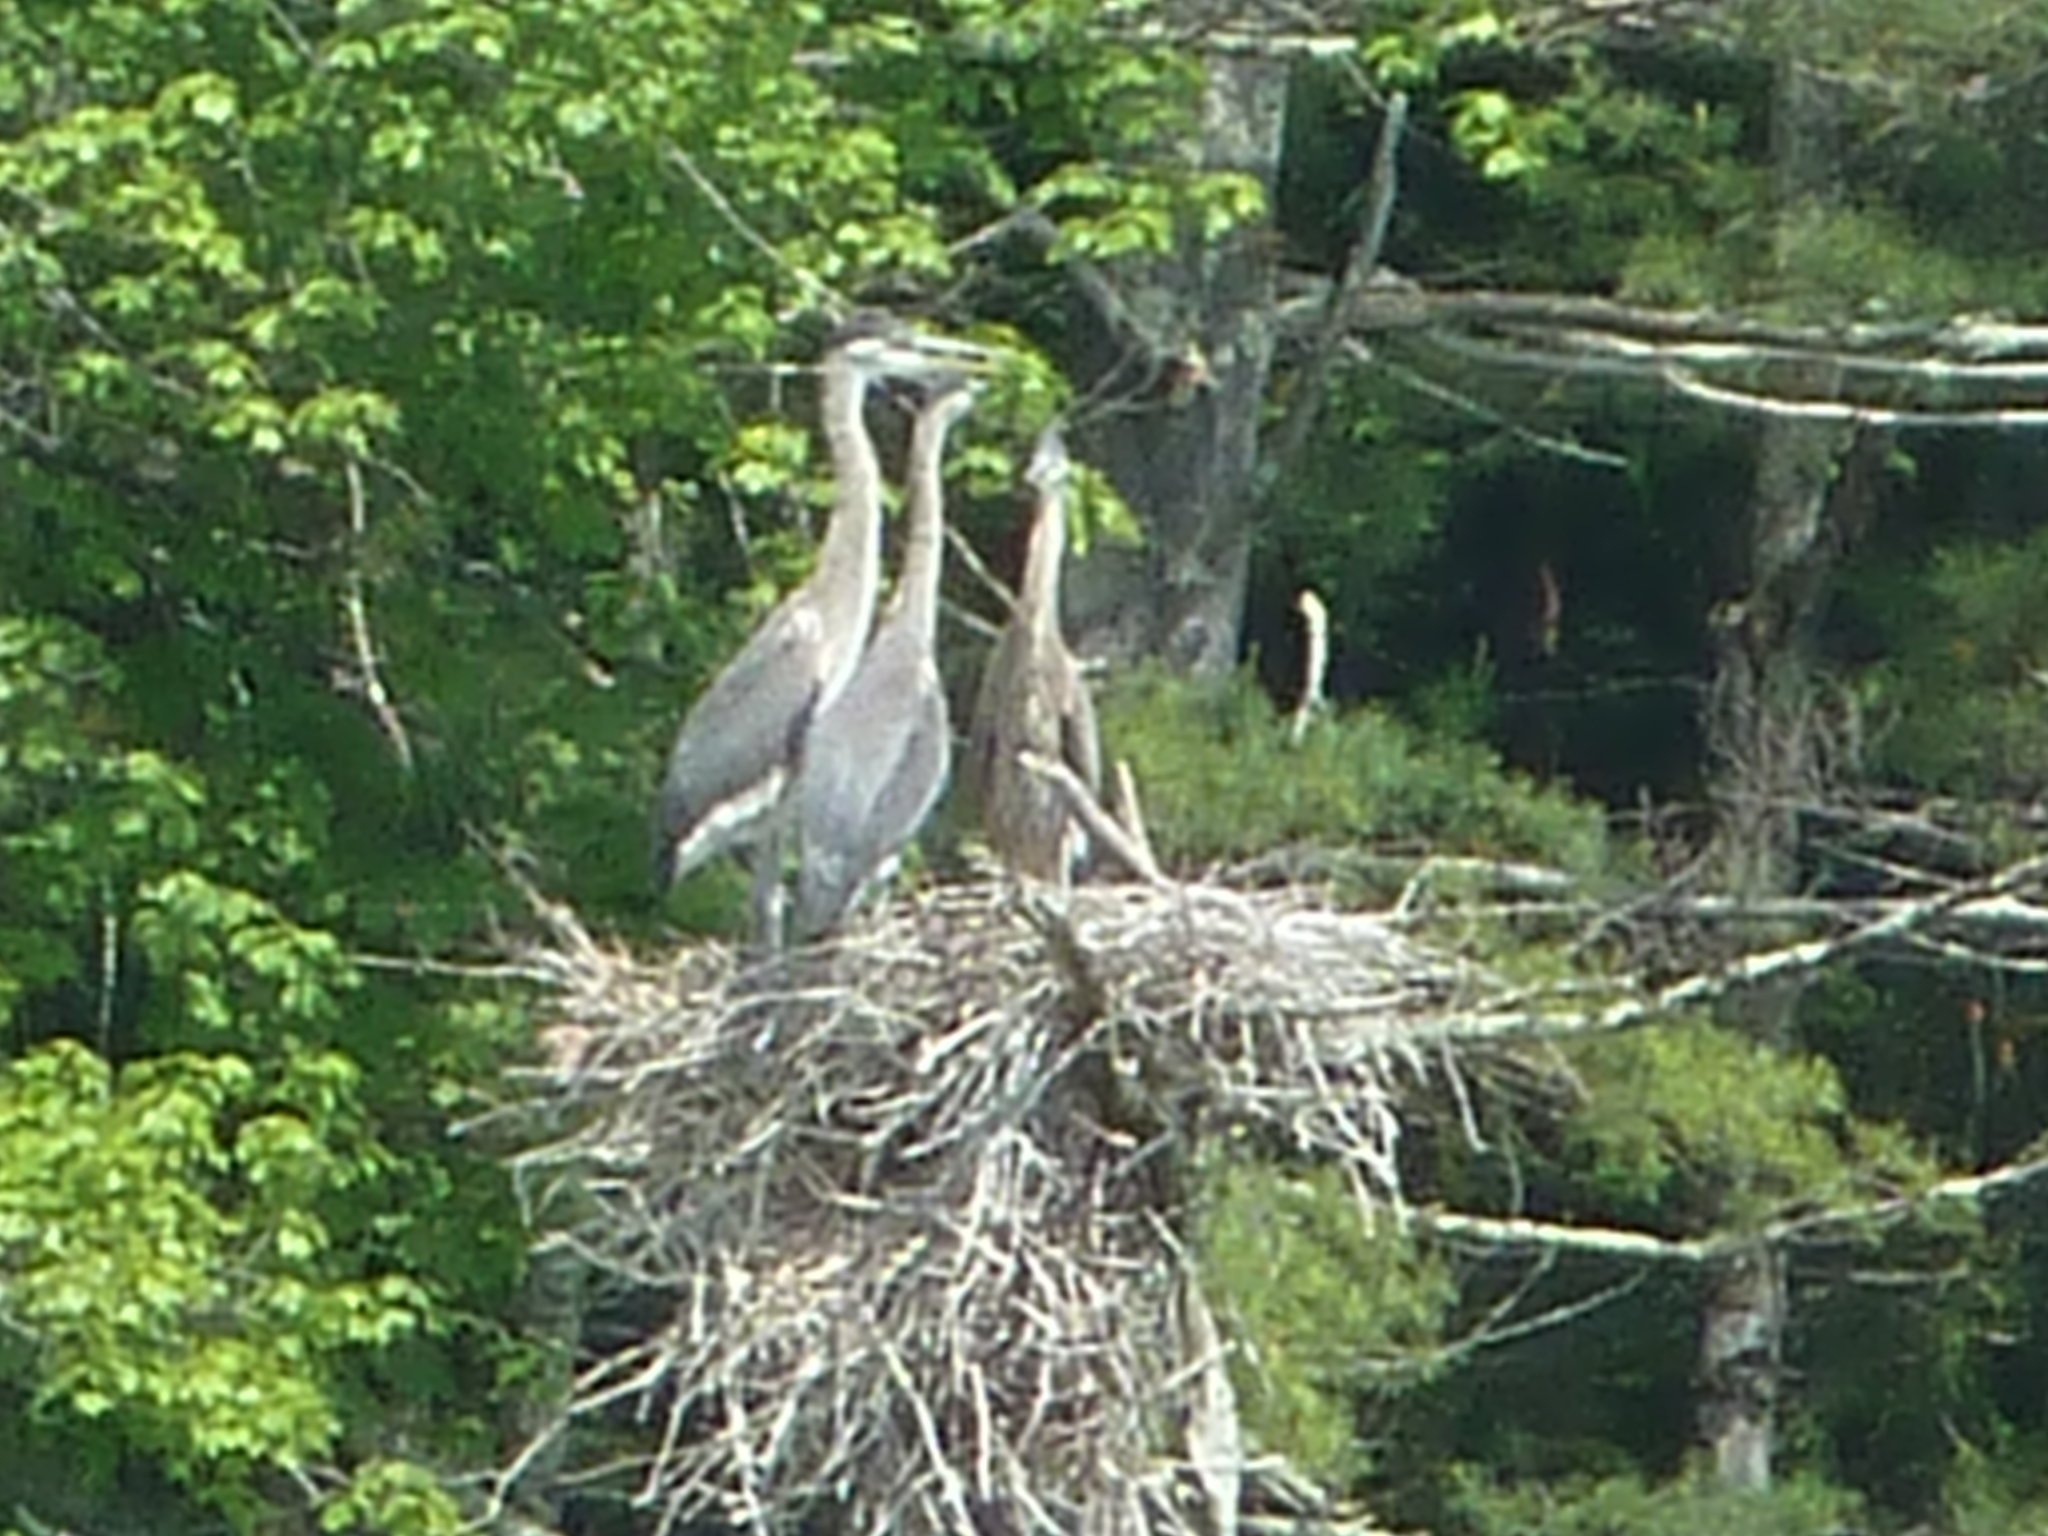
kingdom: Animalia
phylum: Chordata
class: Aves
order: Pelecaniformes
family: Ardeidae
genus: Ardea
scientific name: Ardea herodias
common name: Great blue heron
